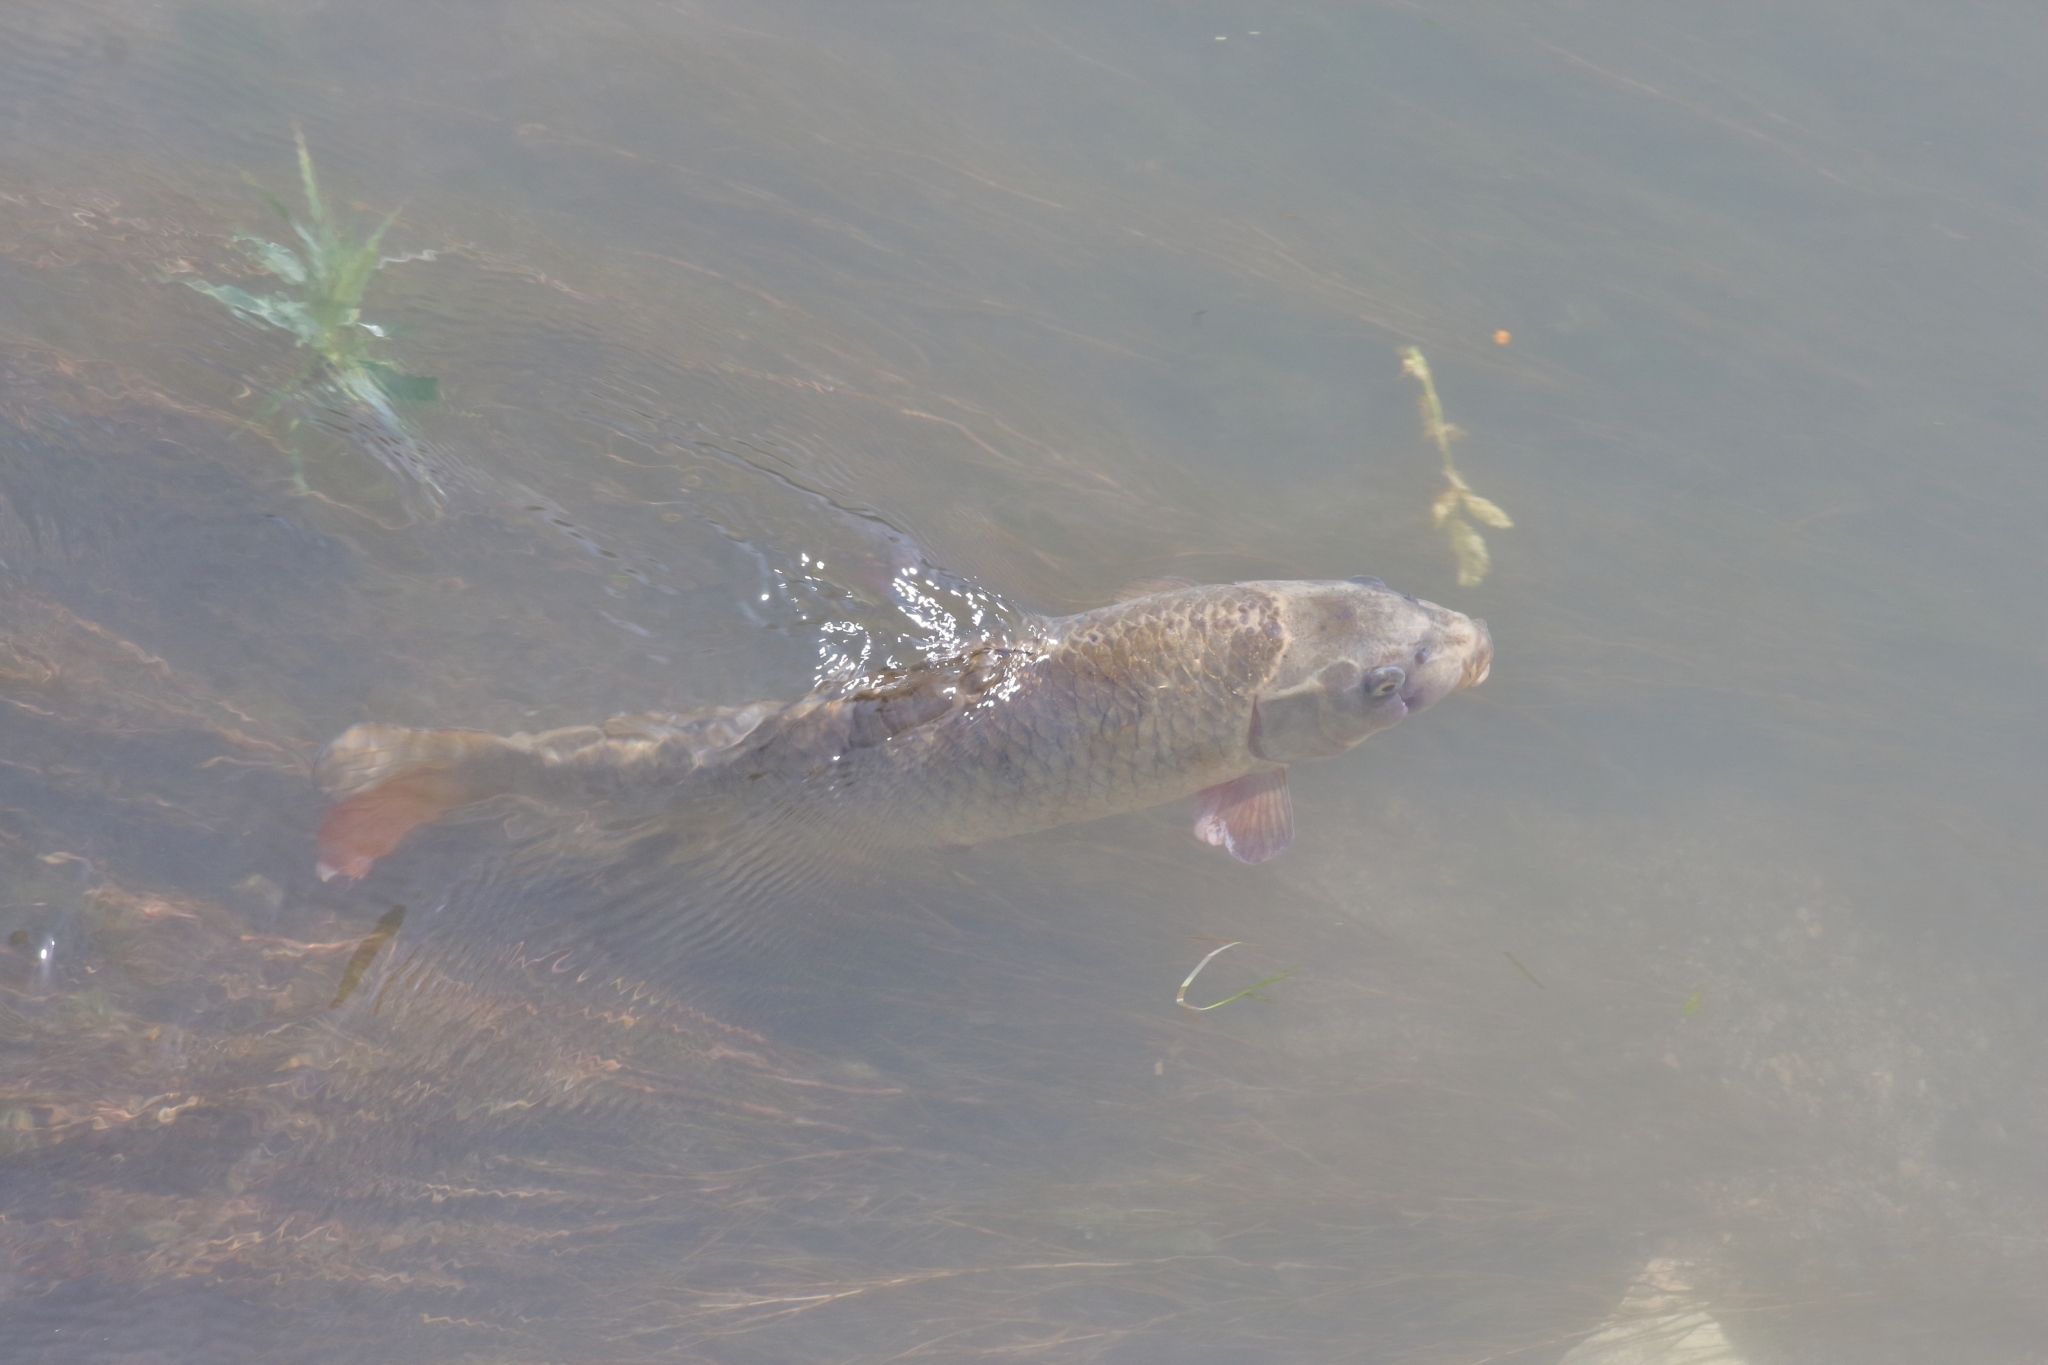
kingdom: Animalia
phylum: Chordata
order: Cypriniformes
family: Cyprinidae
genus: Cyprinus
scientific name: Cyprinus carpio
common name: Common carp
